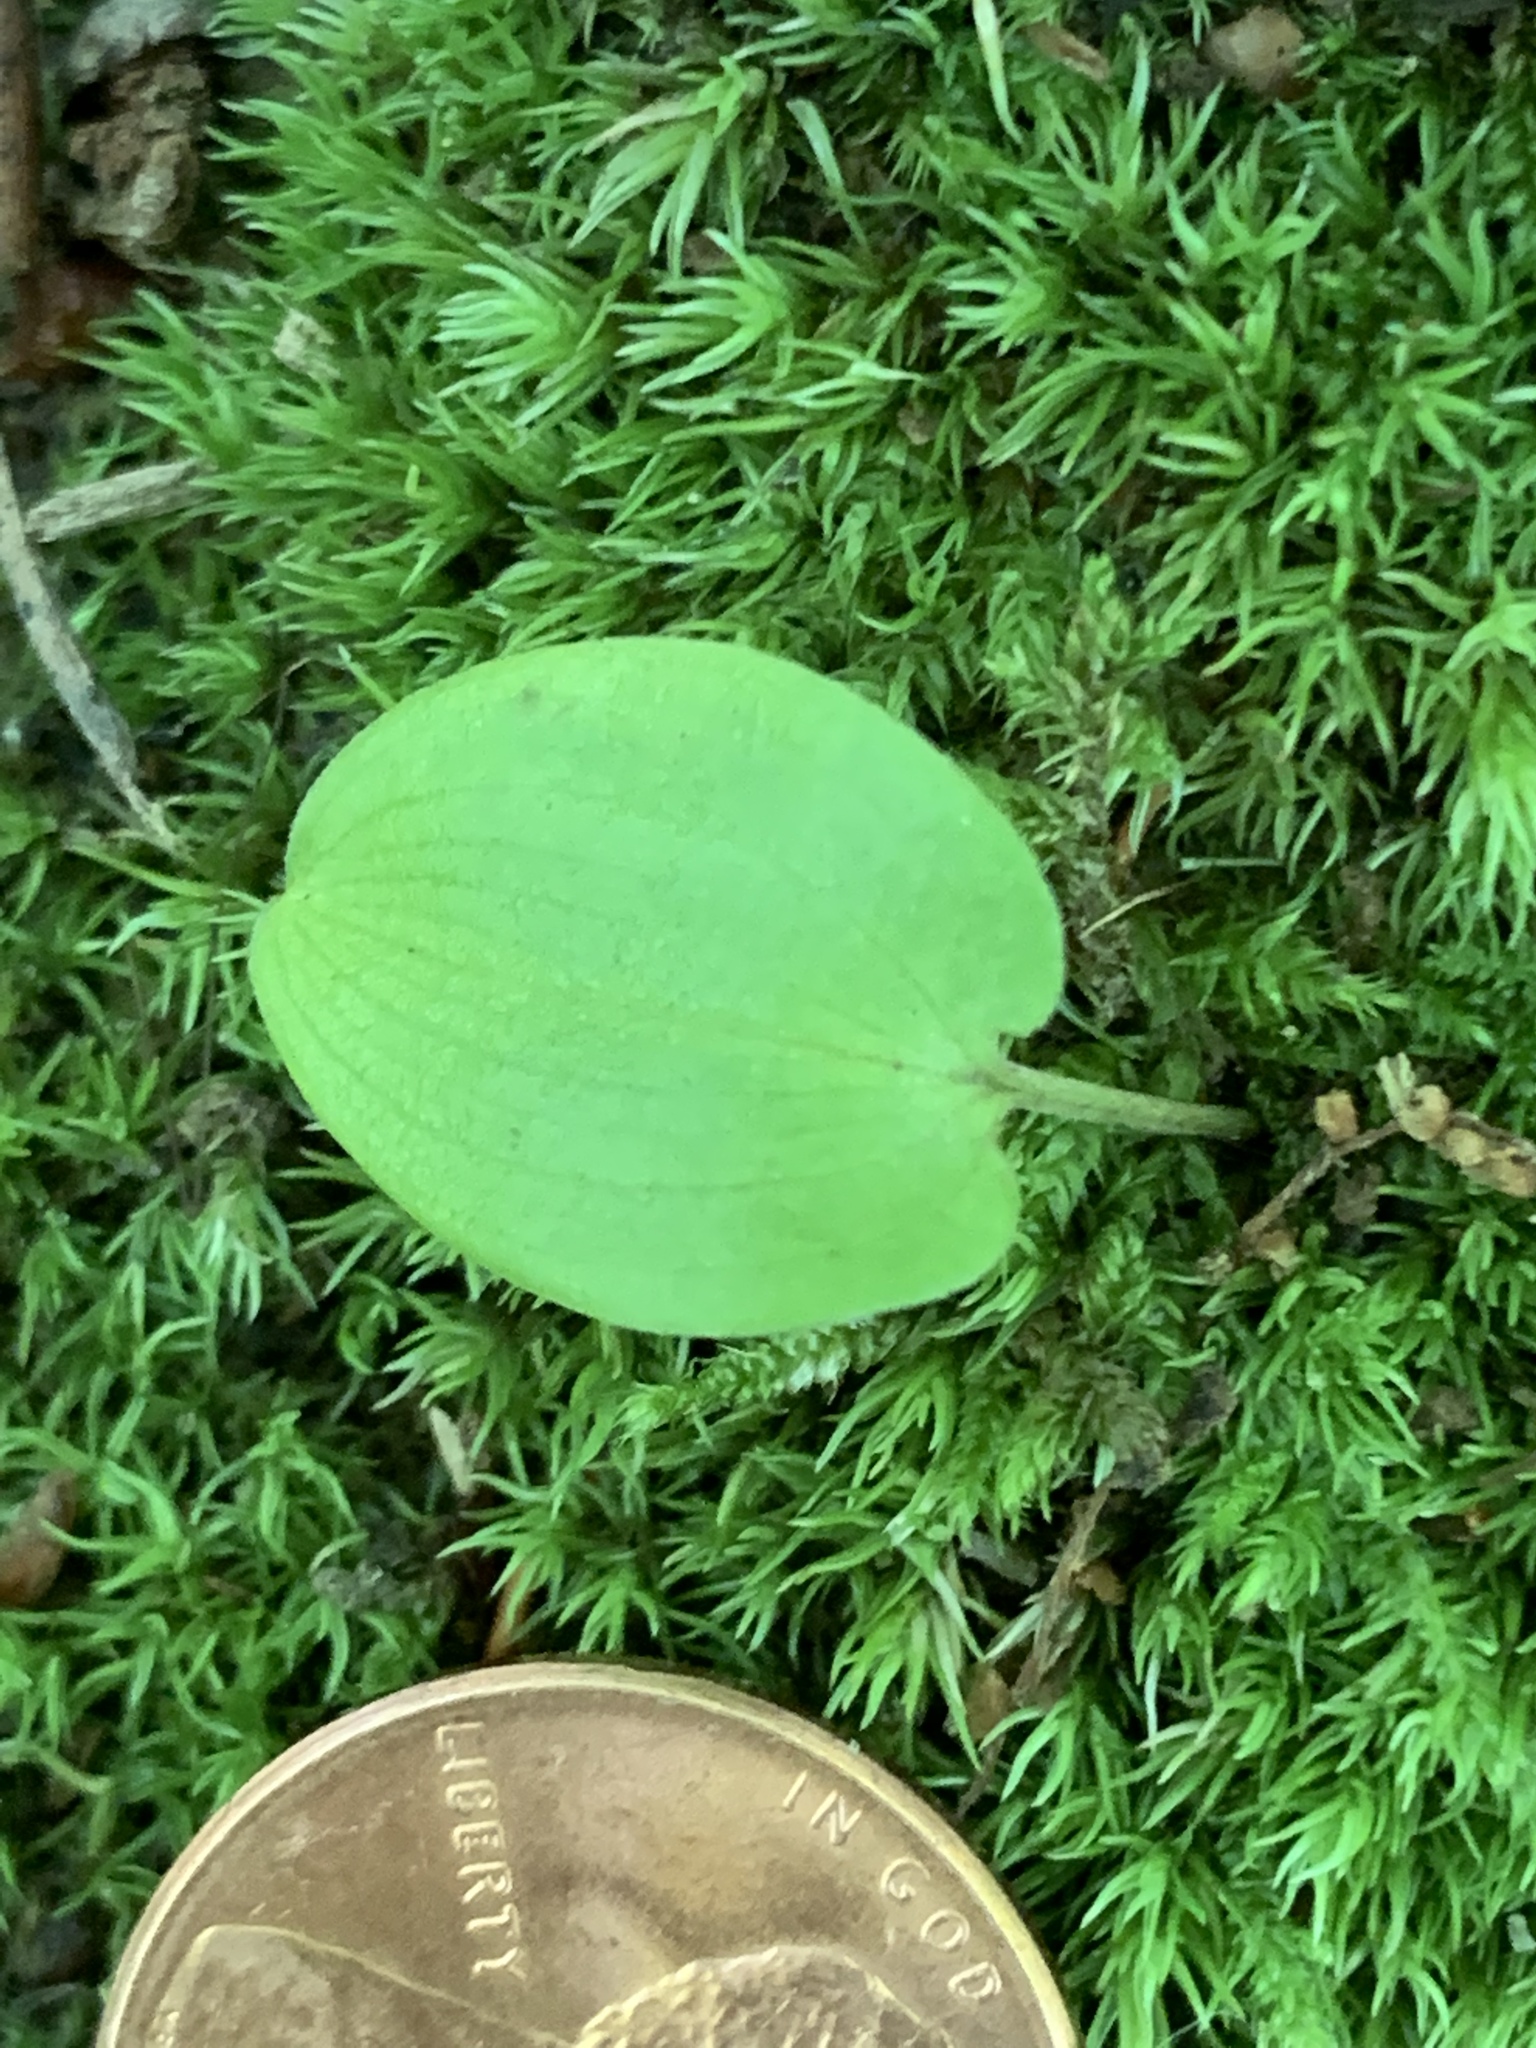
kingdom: Plantae
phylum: Tracheophyta
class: Liliopsida
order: Asparagales
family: Asparagaceae
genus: Maianthemum
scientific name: Maianthemum canadense
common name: False lily-of-the-valley
